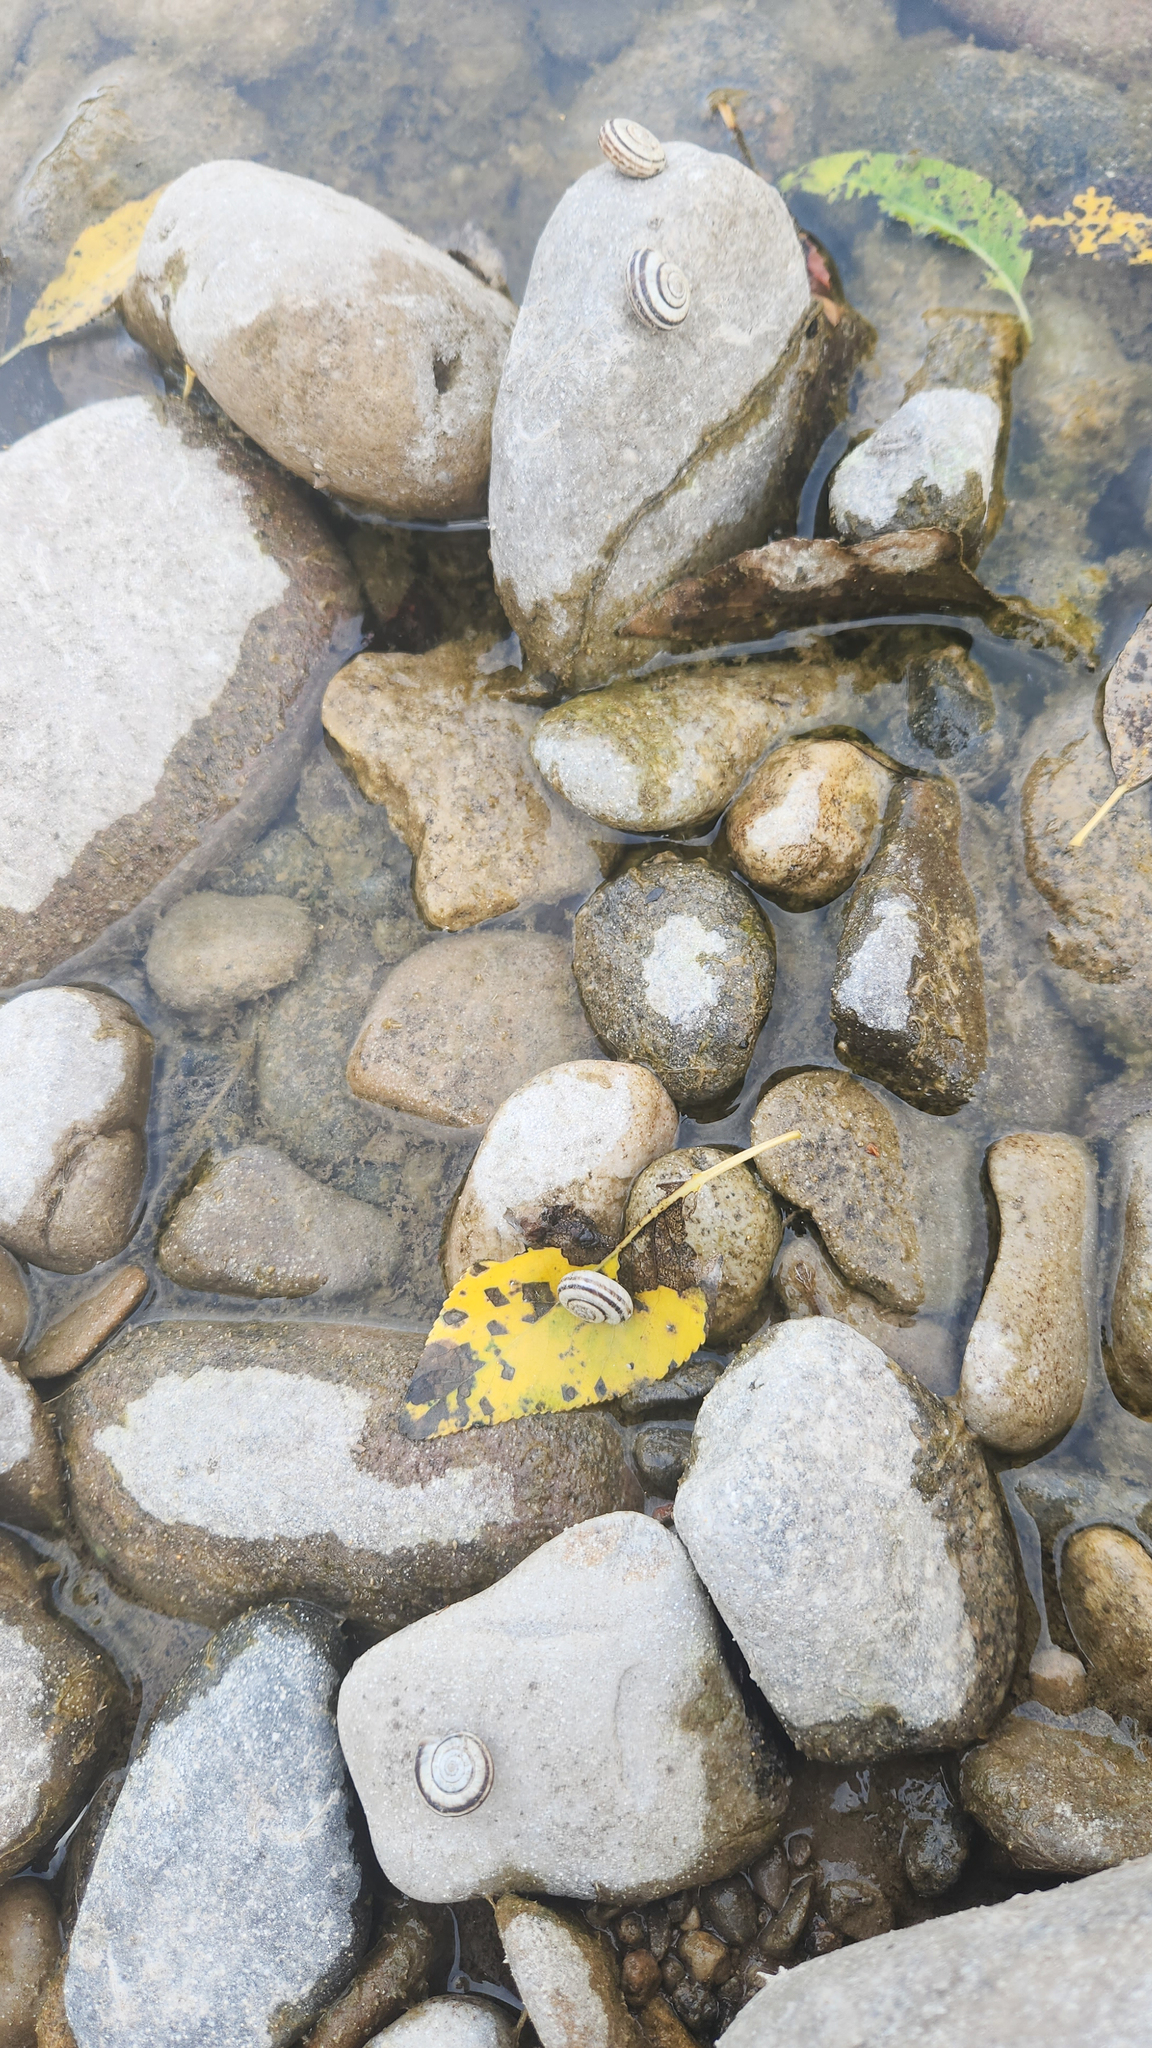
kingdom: Animalia
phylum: Mollusca
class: Gastropoda
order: Stylommatophora
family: Geomitridae
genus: Xerolenta
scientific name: Xerolenta obvia
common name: White heath snail
